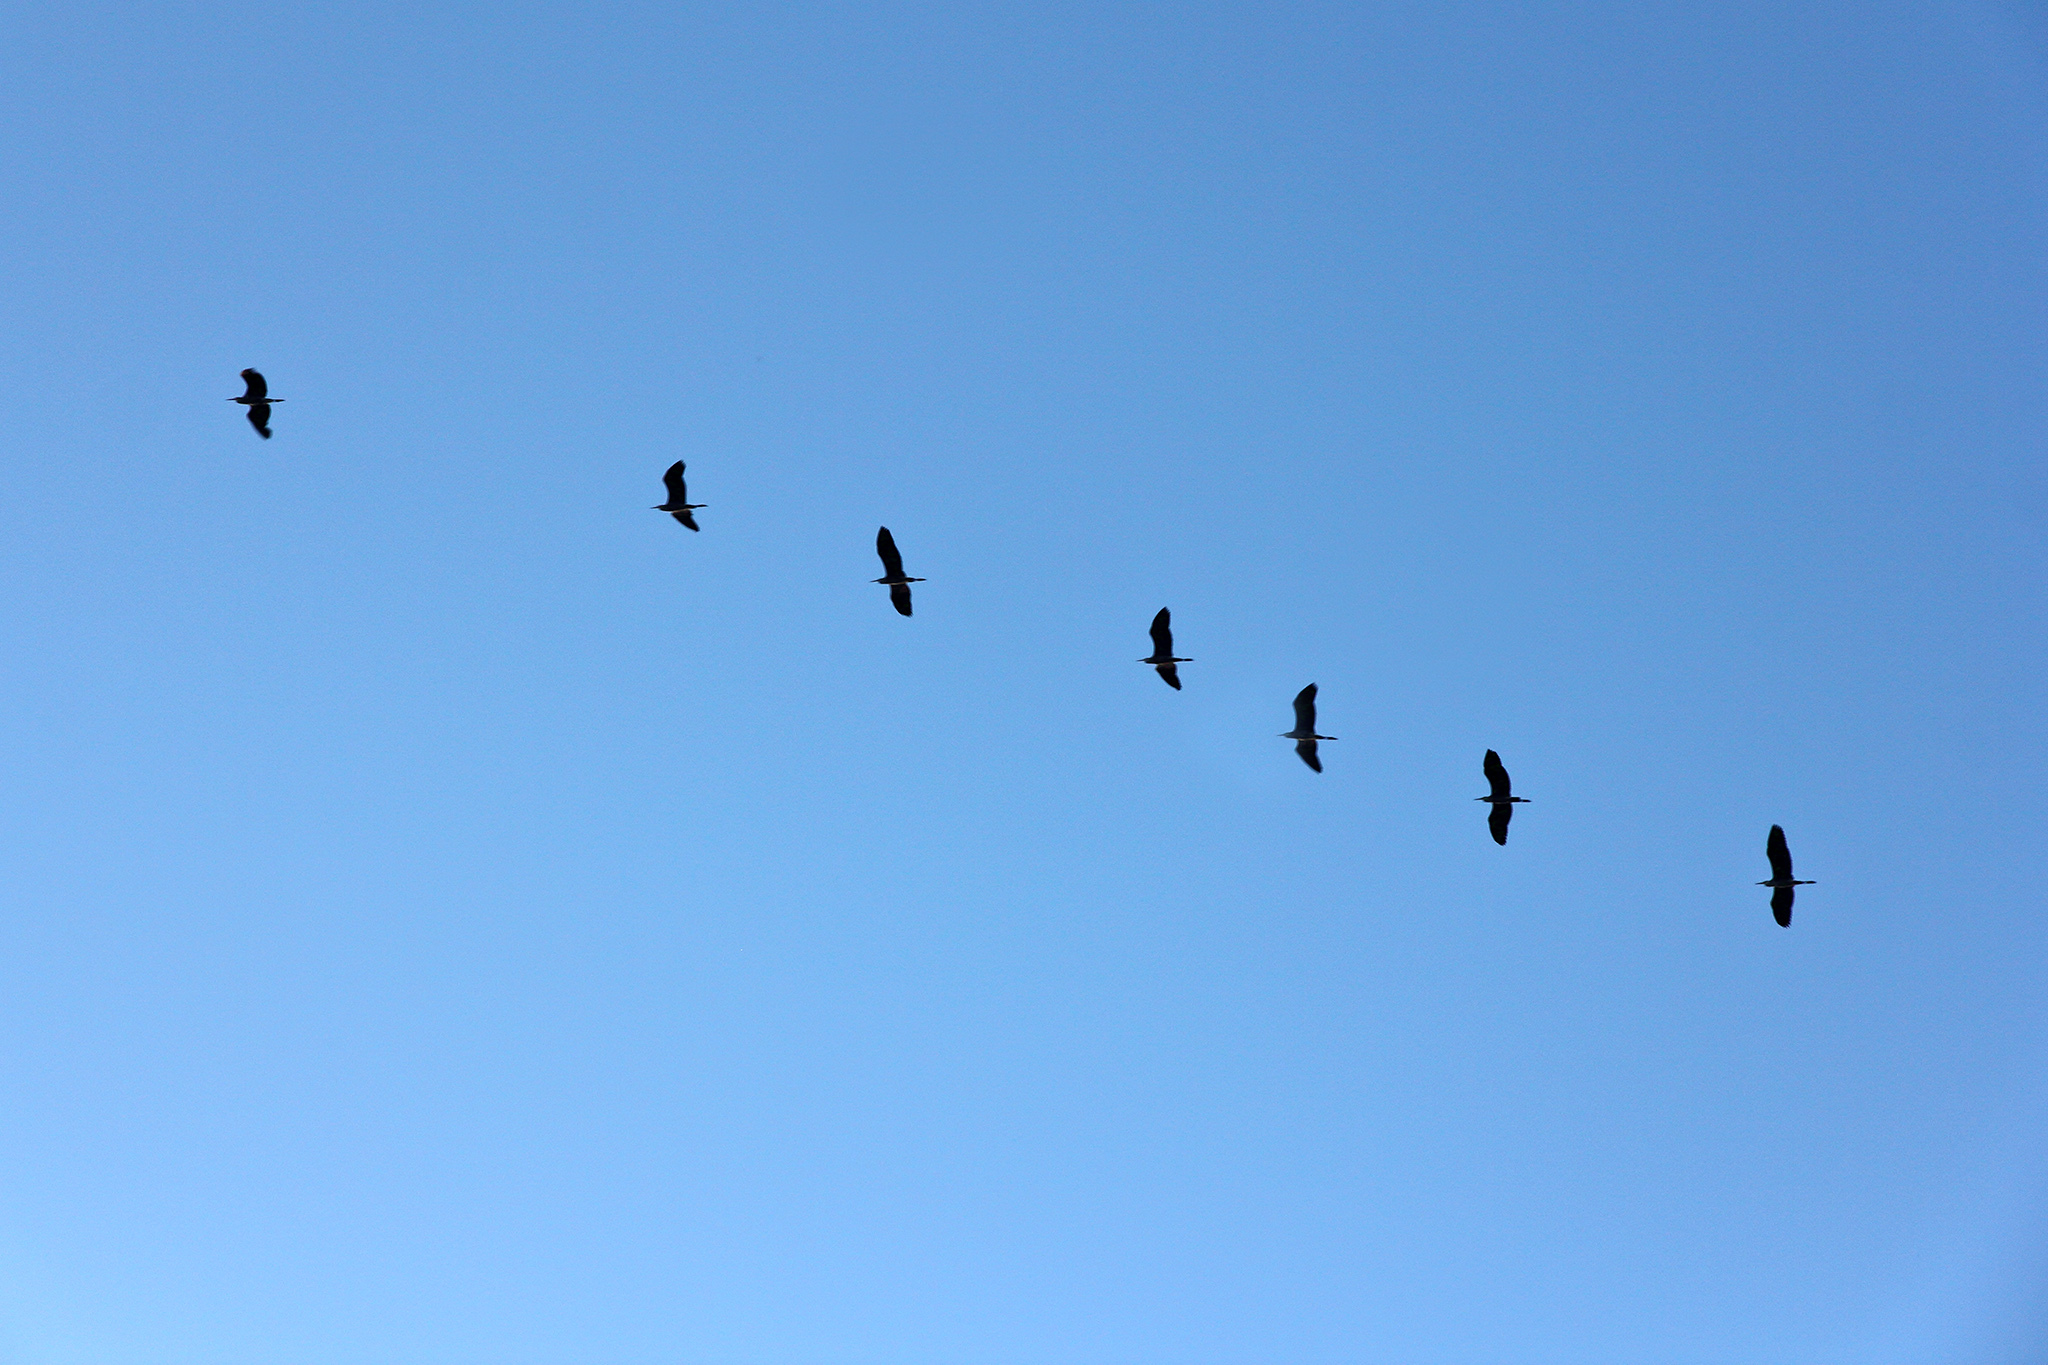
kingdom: Animalia
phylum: Chordata
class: Aves
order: Pelecaniformes
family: Ardeidae
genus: Ardea
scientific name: Ardea cinerea
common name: Grey heron
